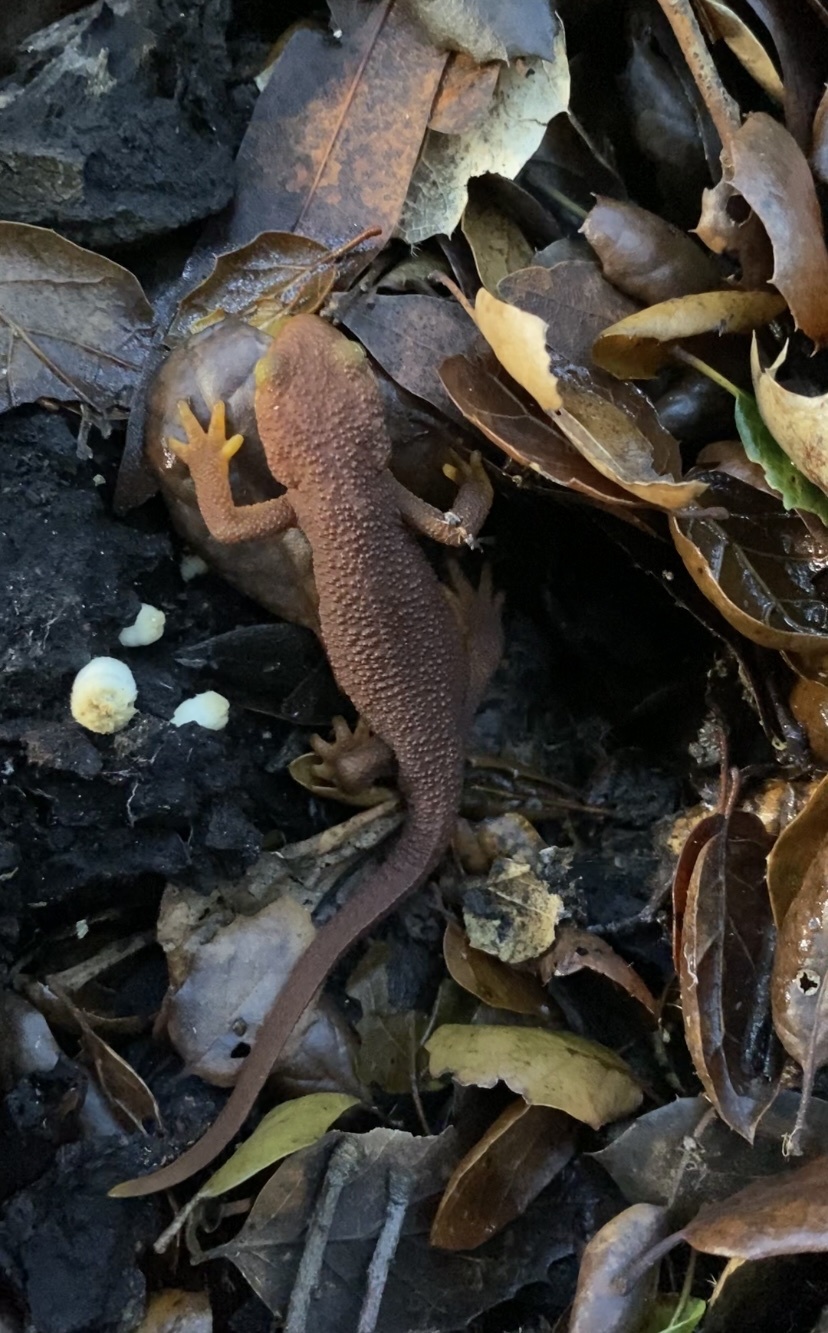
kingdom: Animalia
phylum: Chordata
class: Amphibia
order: Caudata
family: Salamandridae
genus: Taricha
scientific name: Taricha torosa
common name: California newt
